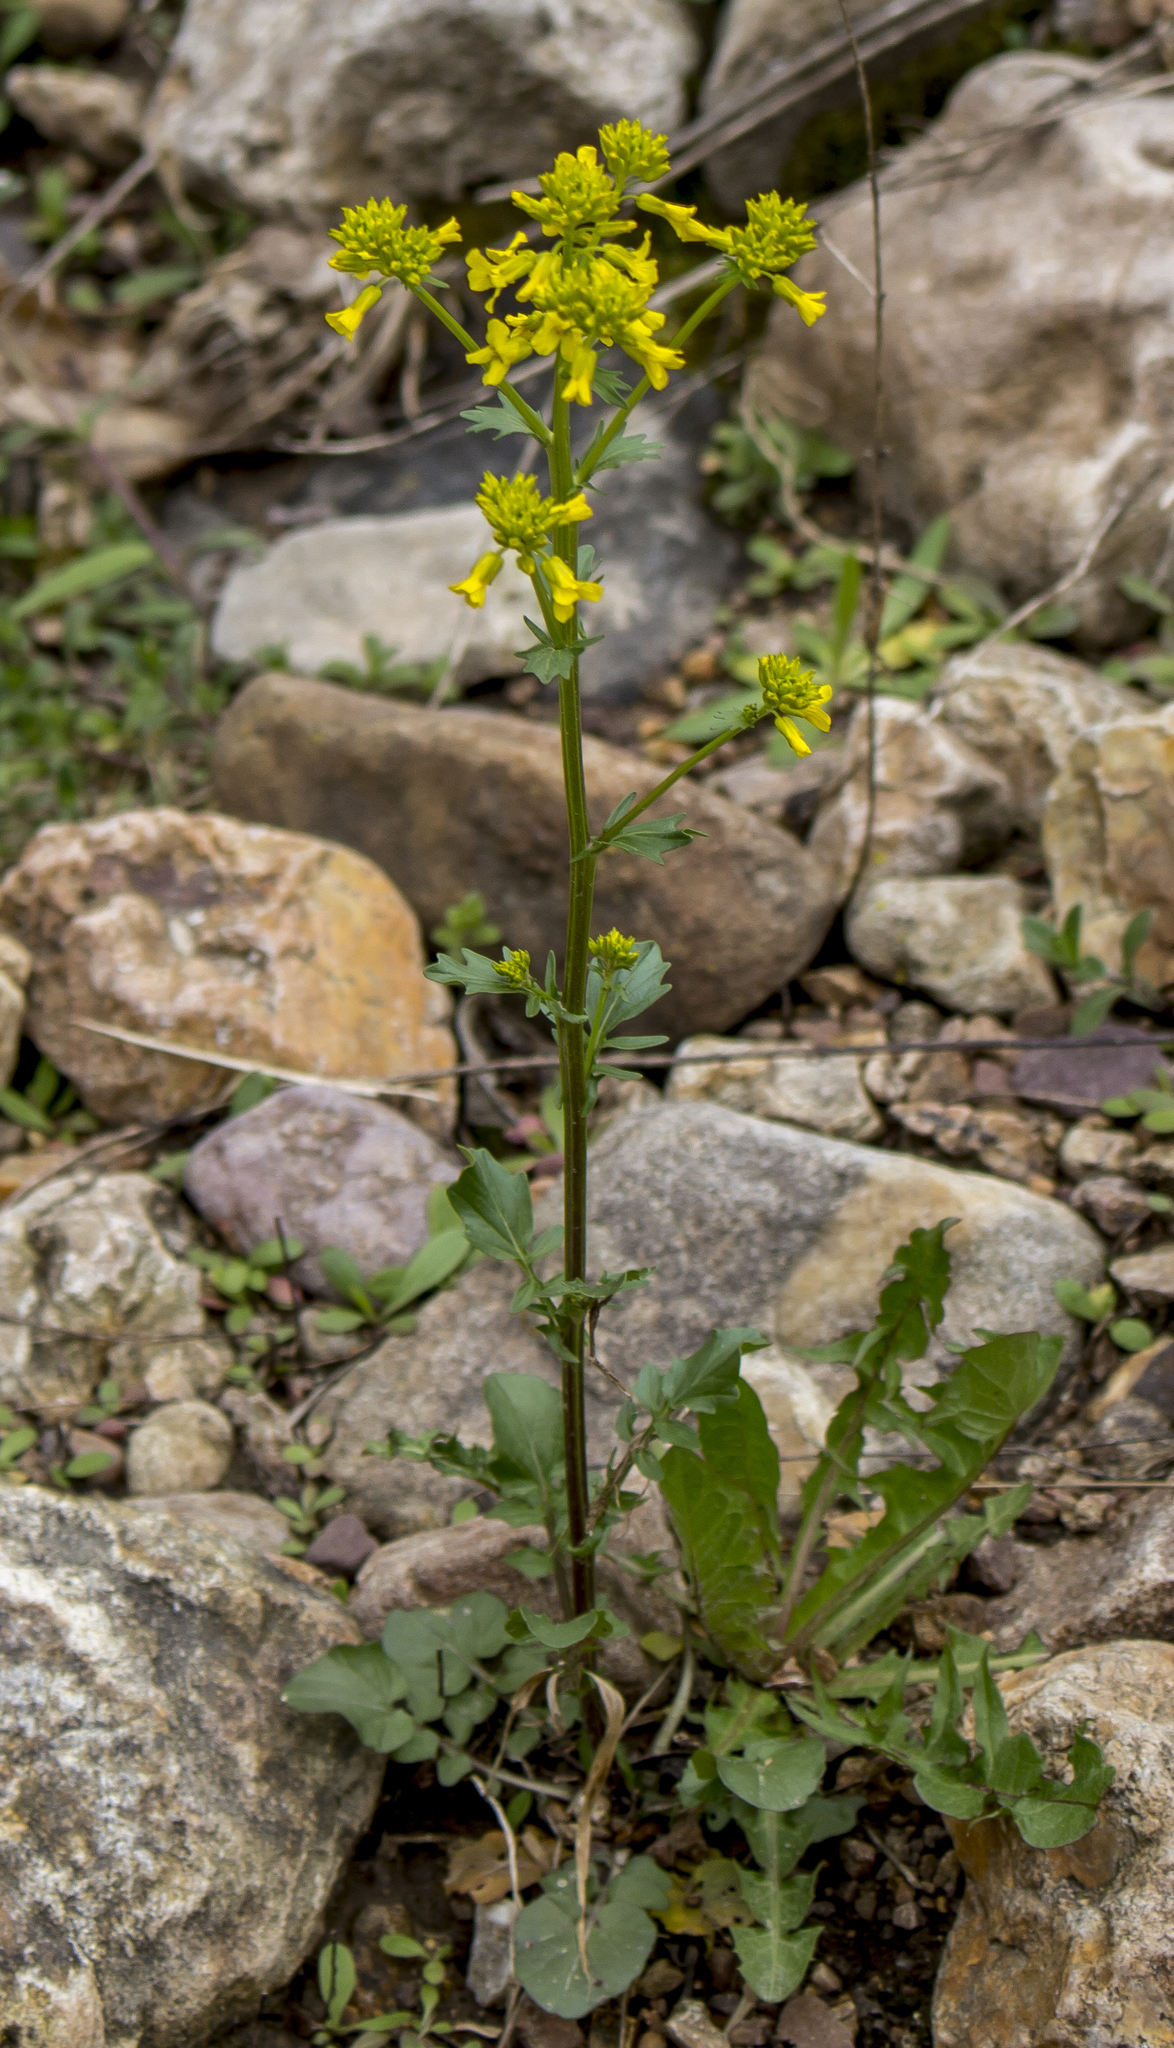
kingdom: Plantae
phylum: Tracheophyta
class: Magnoliopsida
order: Brassicales
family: Brassicaceae
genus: Barbarea
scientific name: Barbarea vulgaris
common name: Cressy-greens
